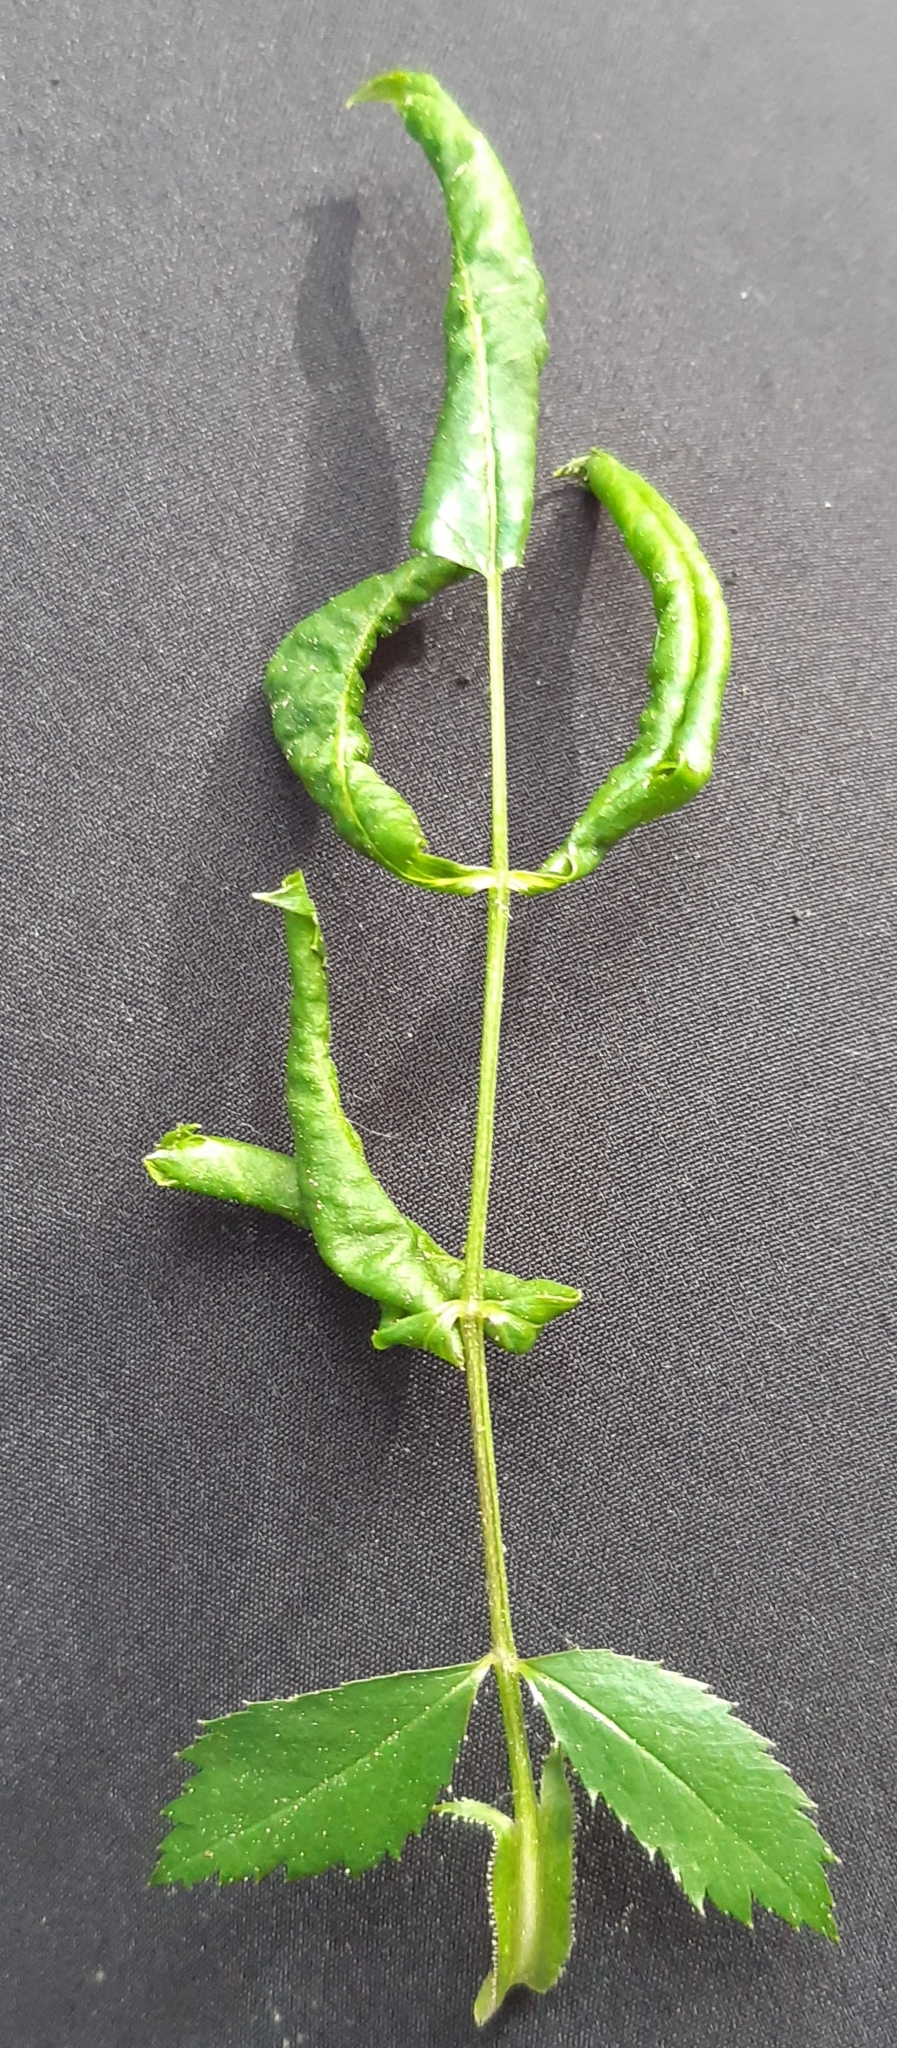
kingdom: Animalia
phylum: Arthropoda
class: Insecta
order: Hymenoptera
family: Tenthredinidae
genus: Blennocampa
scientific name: Blennocampa phyllocolpa
